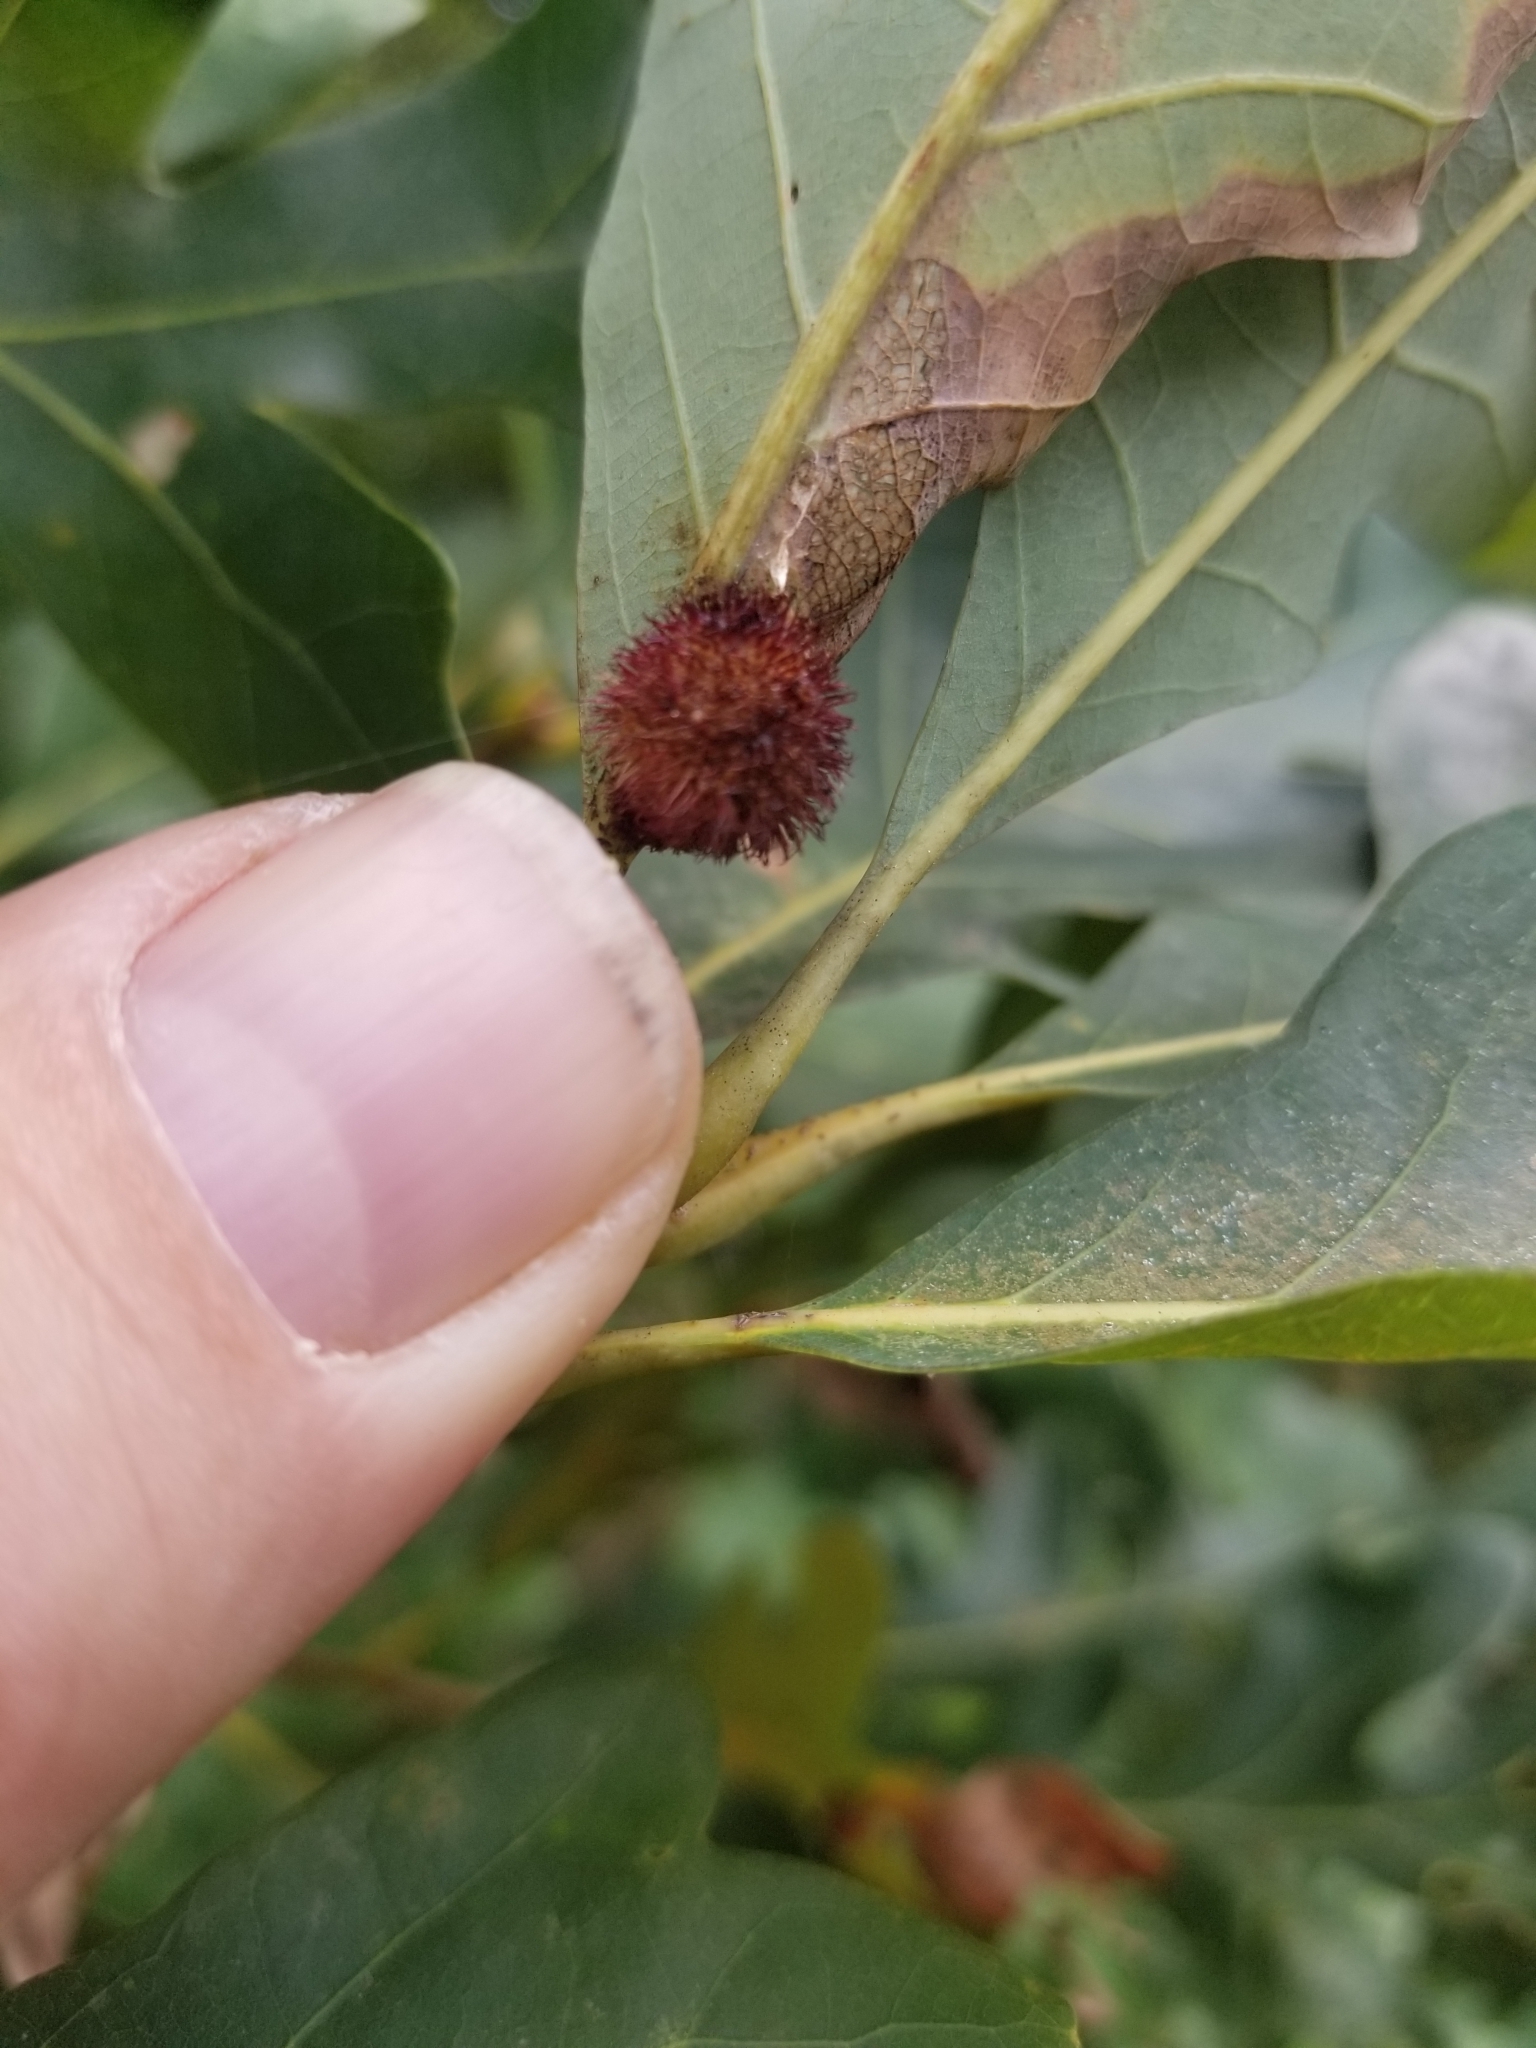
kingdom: Animalia
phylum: Arthropoda
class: Insecta
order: Hymenoptera
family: Cynipidae
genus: Acraspis
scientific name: Acraspis erinacei
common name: Hedgehog gall wasp
